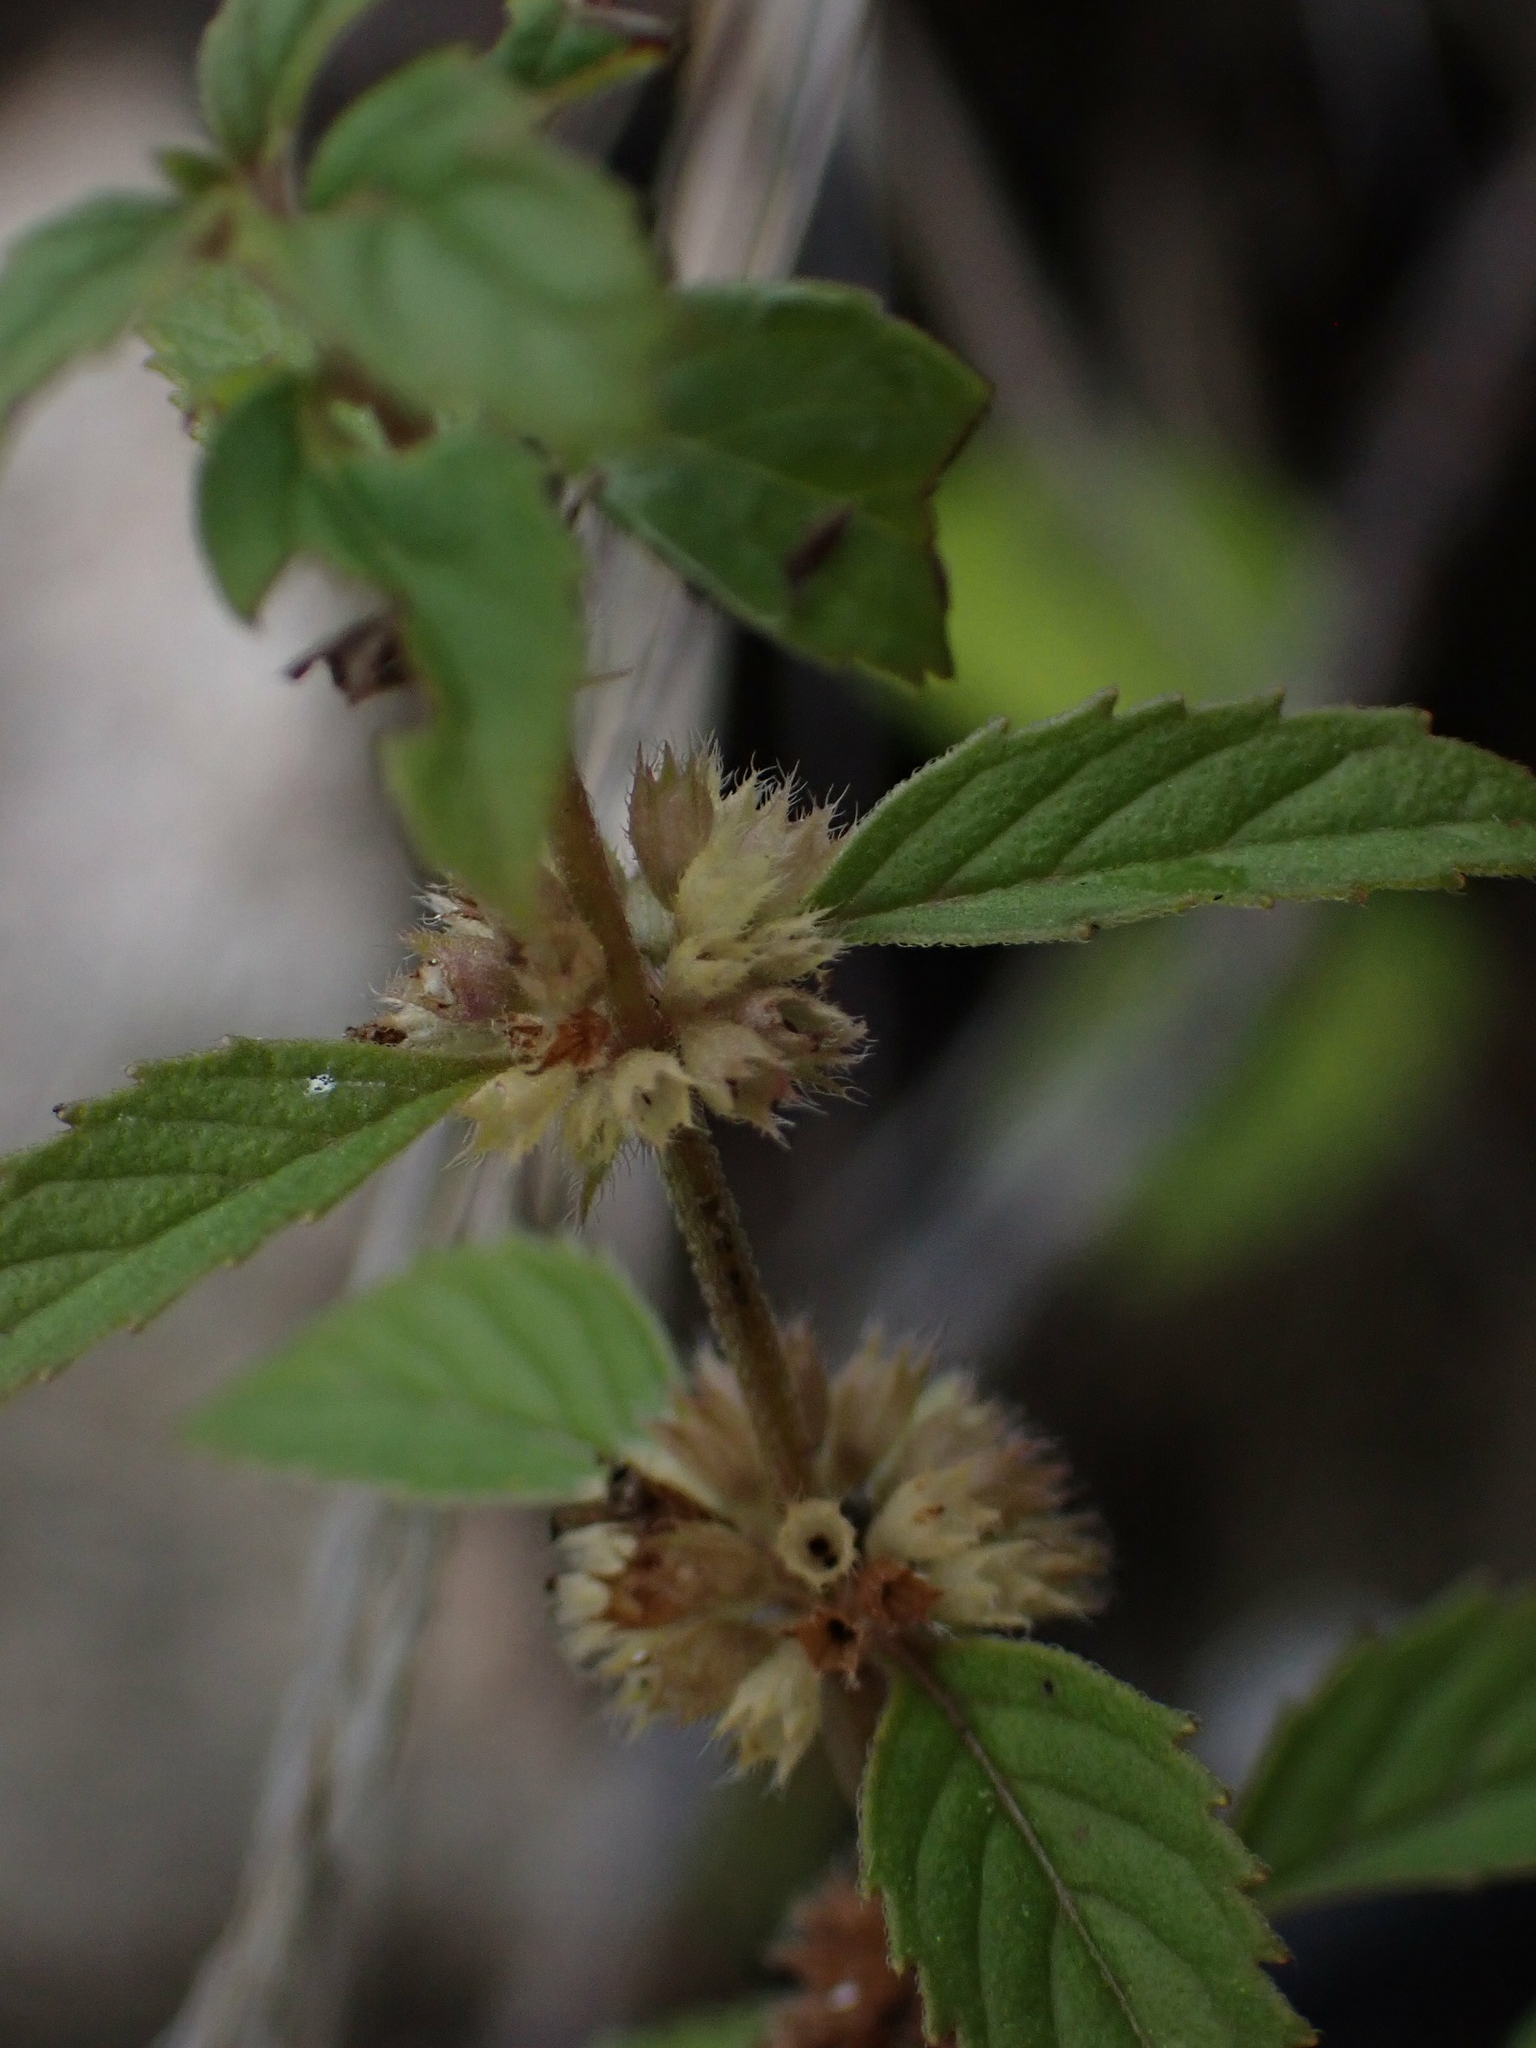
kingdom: Plantae
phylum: Tracheophyta
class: Magnoliopsida
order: Lamiales
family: Lamiaceae
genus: Mentha
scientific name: Mentha canadensis
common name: American corn mint
